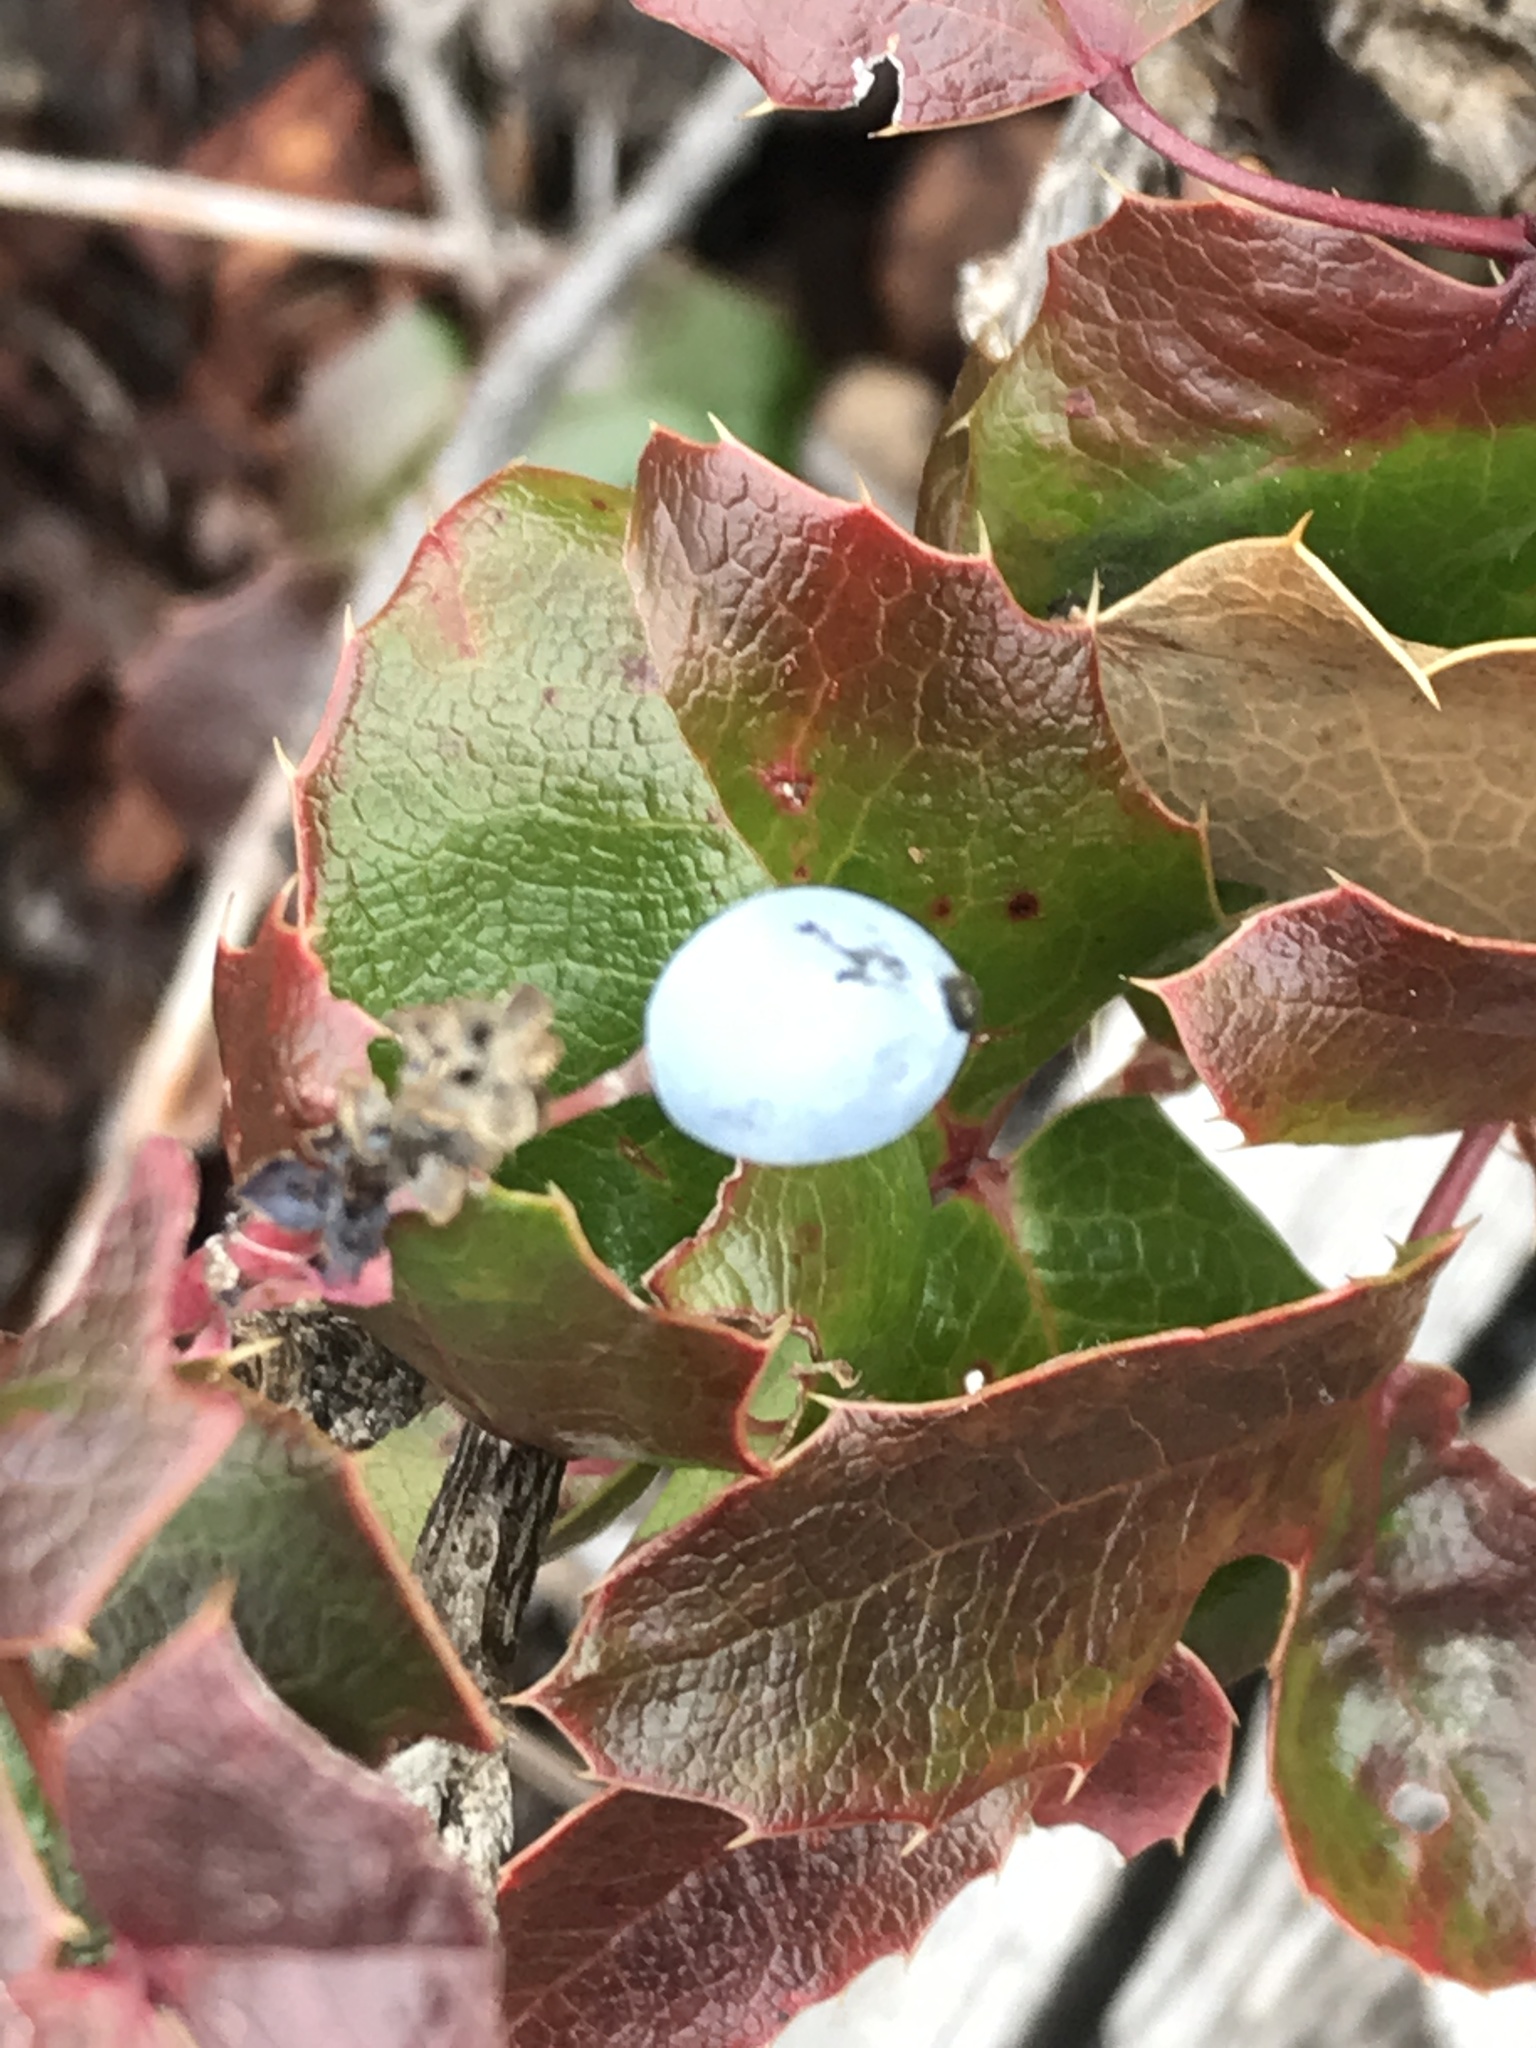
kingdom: Plantae
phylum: Tracheophyta
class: Magnoliopsida
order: Ranunculales
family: Berberidaceae
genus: Mahonia
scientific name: Mahonia aquifolium
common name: Oregon-grape
